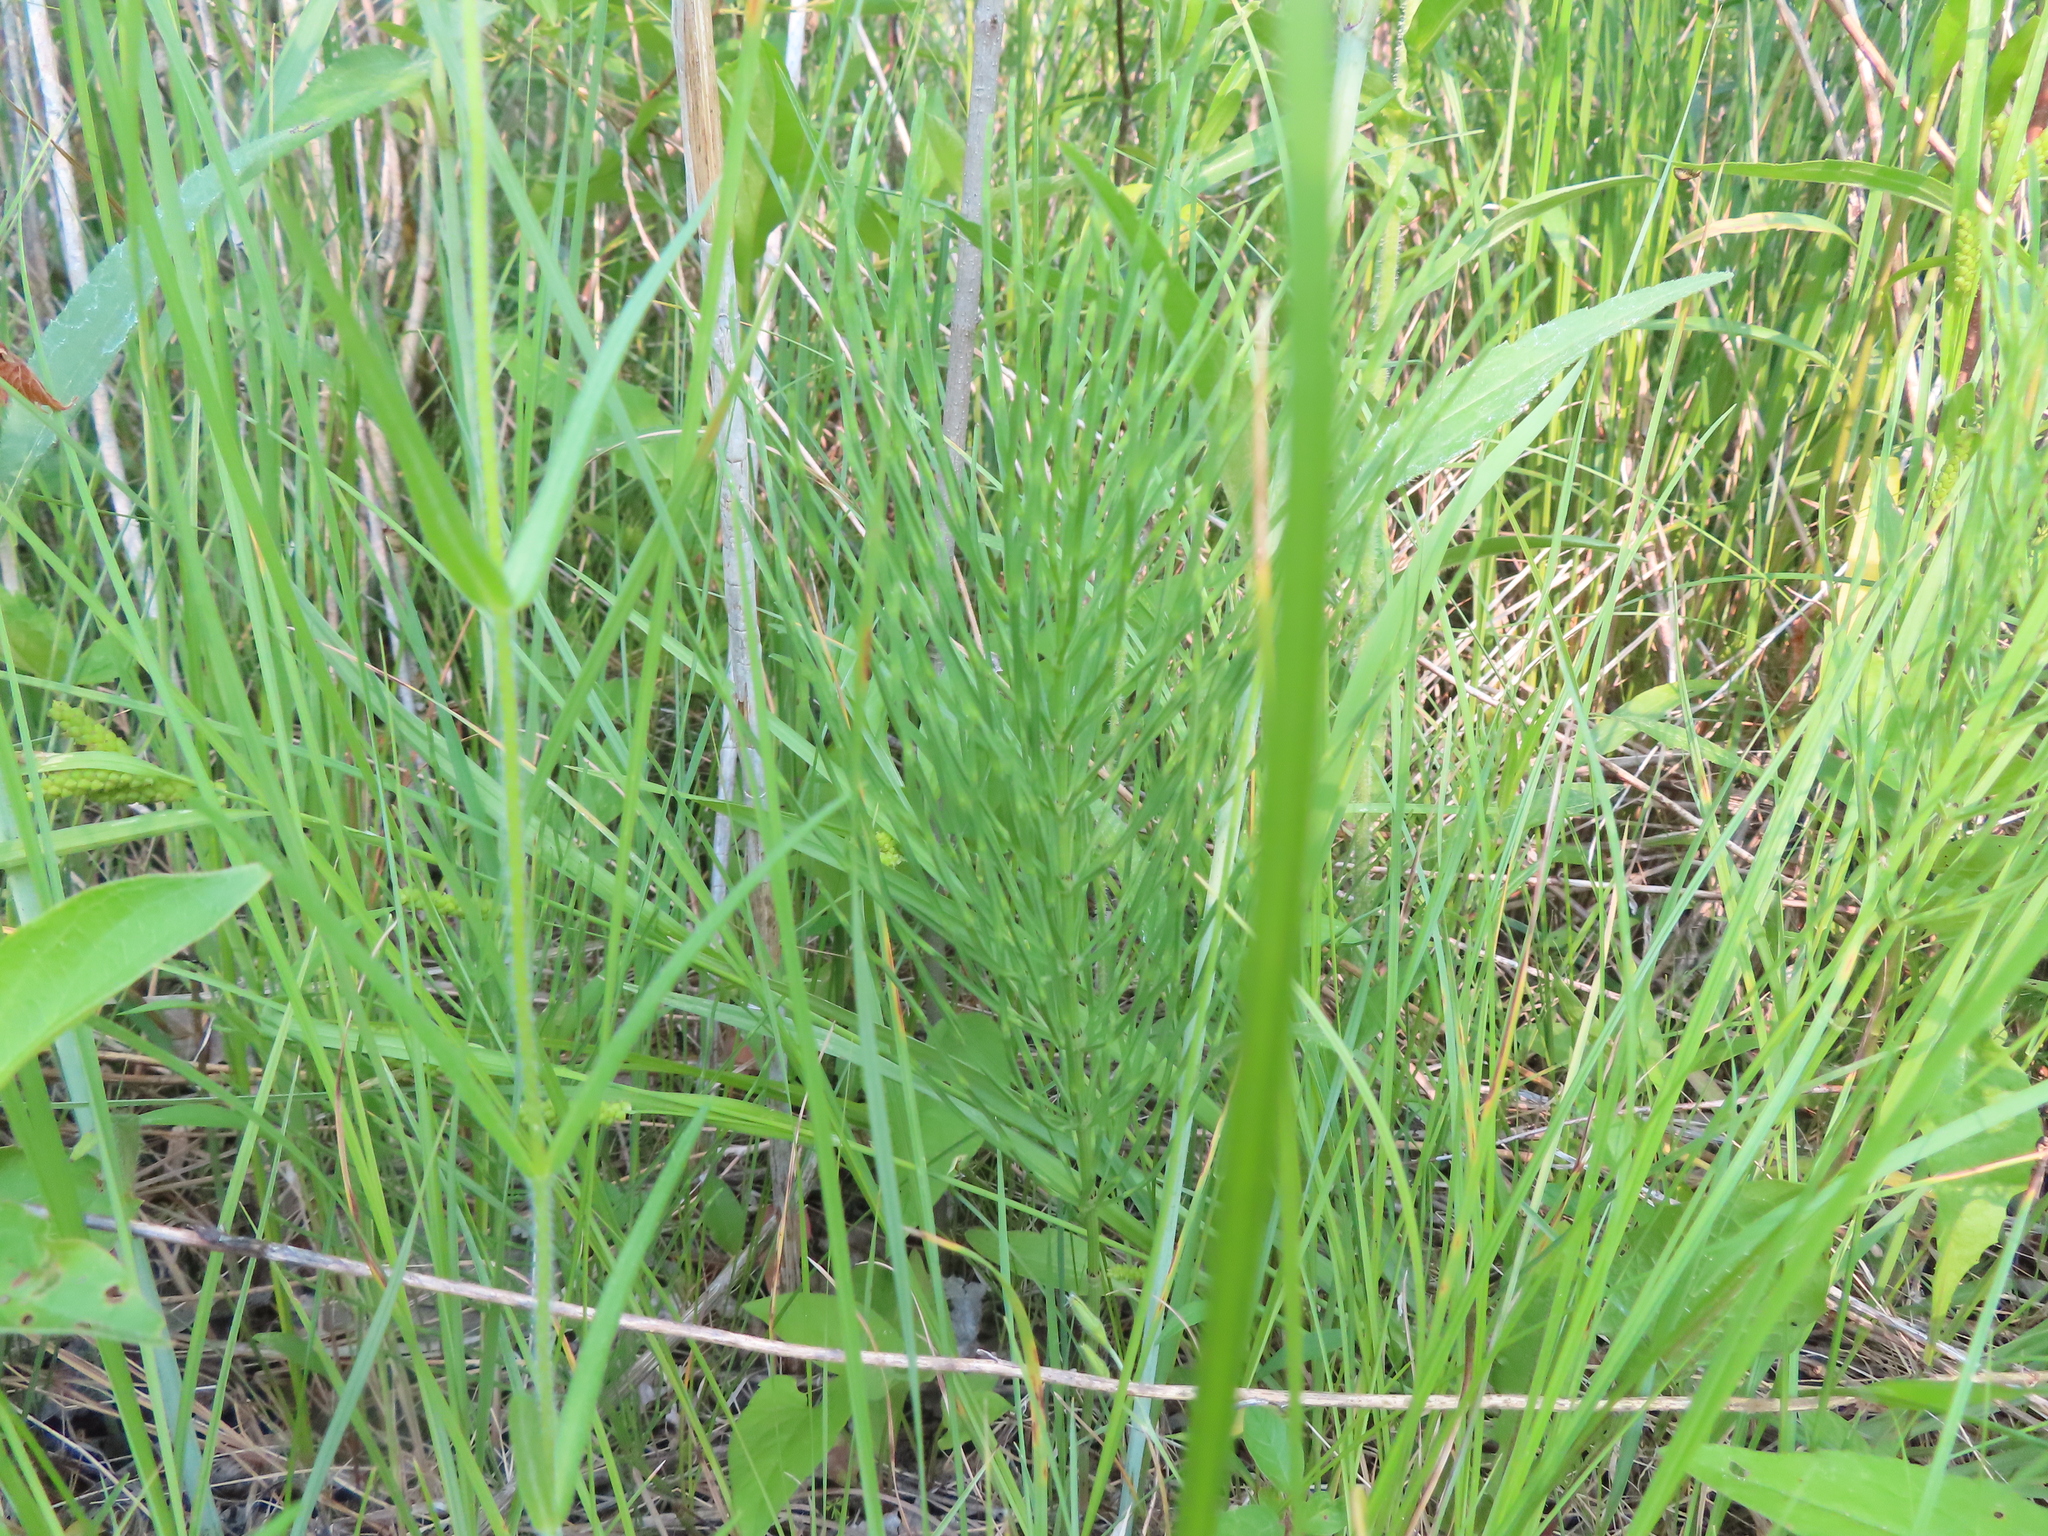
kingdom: Plantae
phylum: Tracheophyta
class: Polypodiopsida
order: Equisetales
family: Equisetaceae
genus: Equisetum
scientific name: Equisetum arvense
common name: Field horsetail
